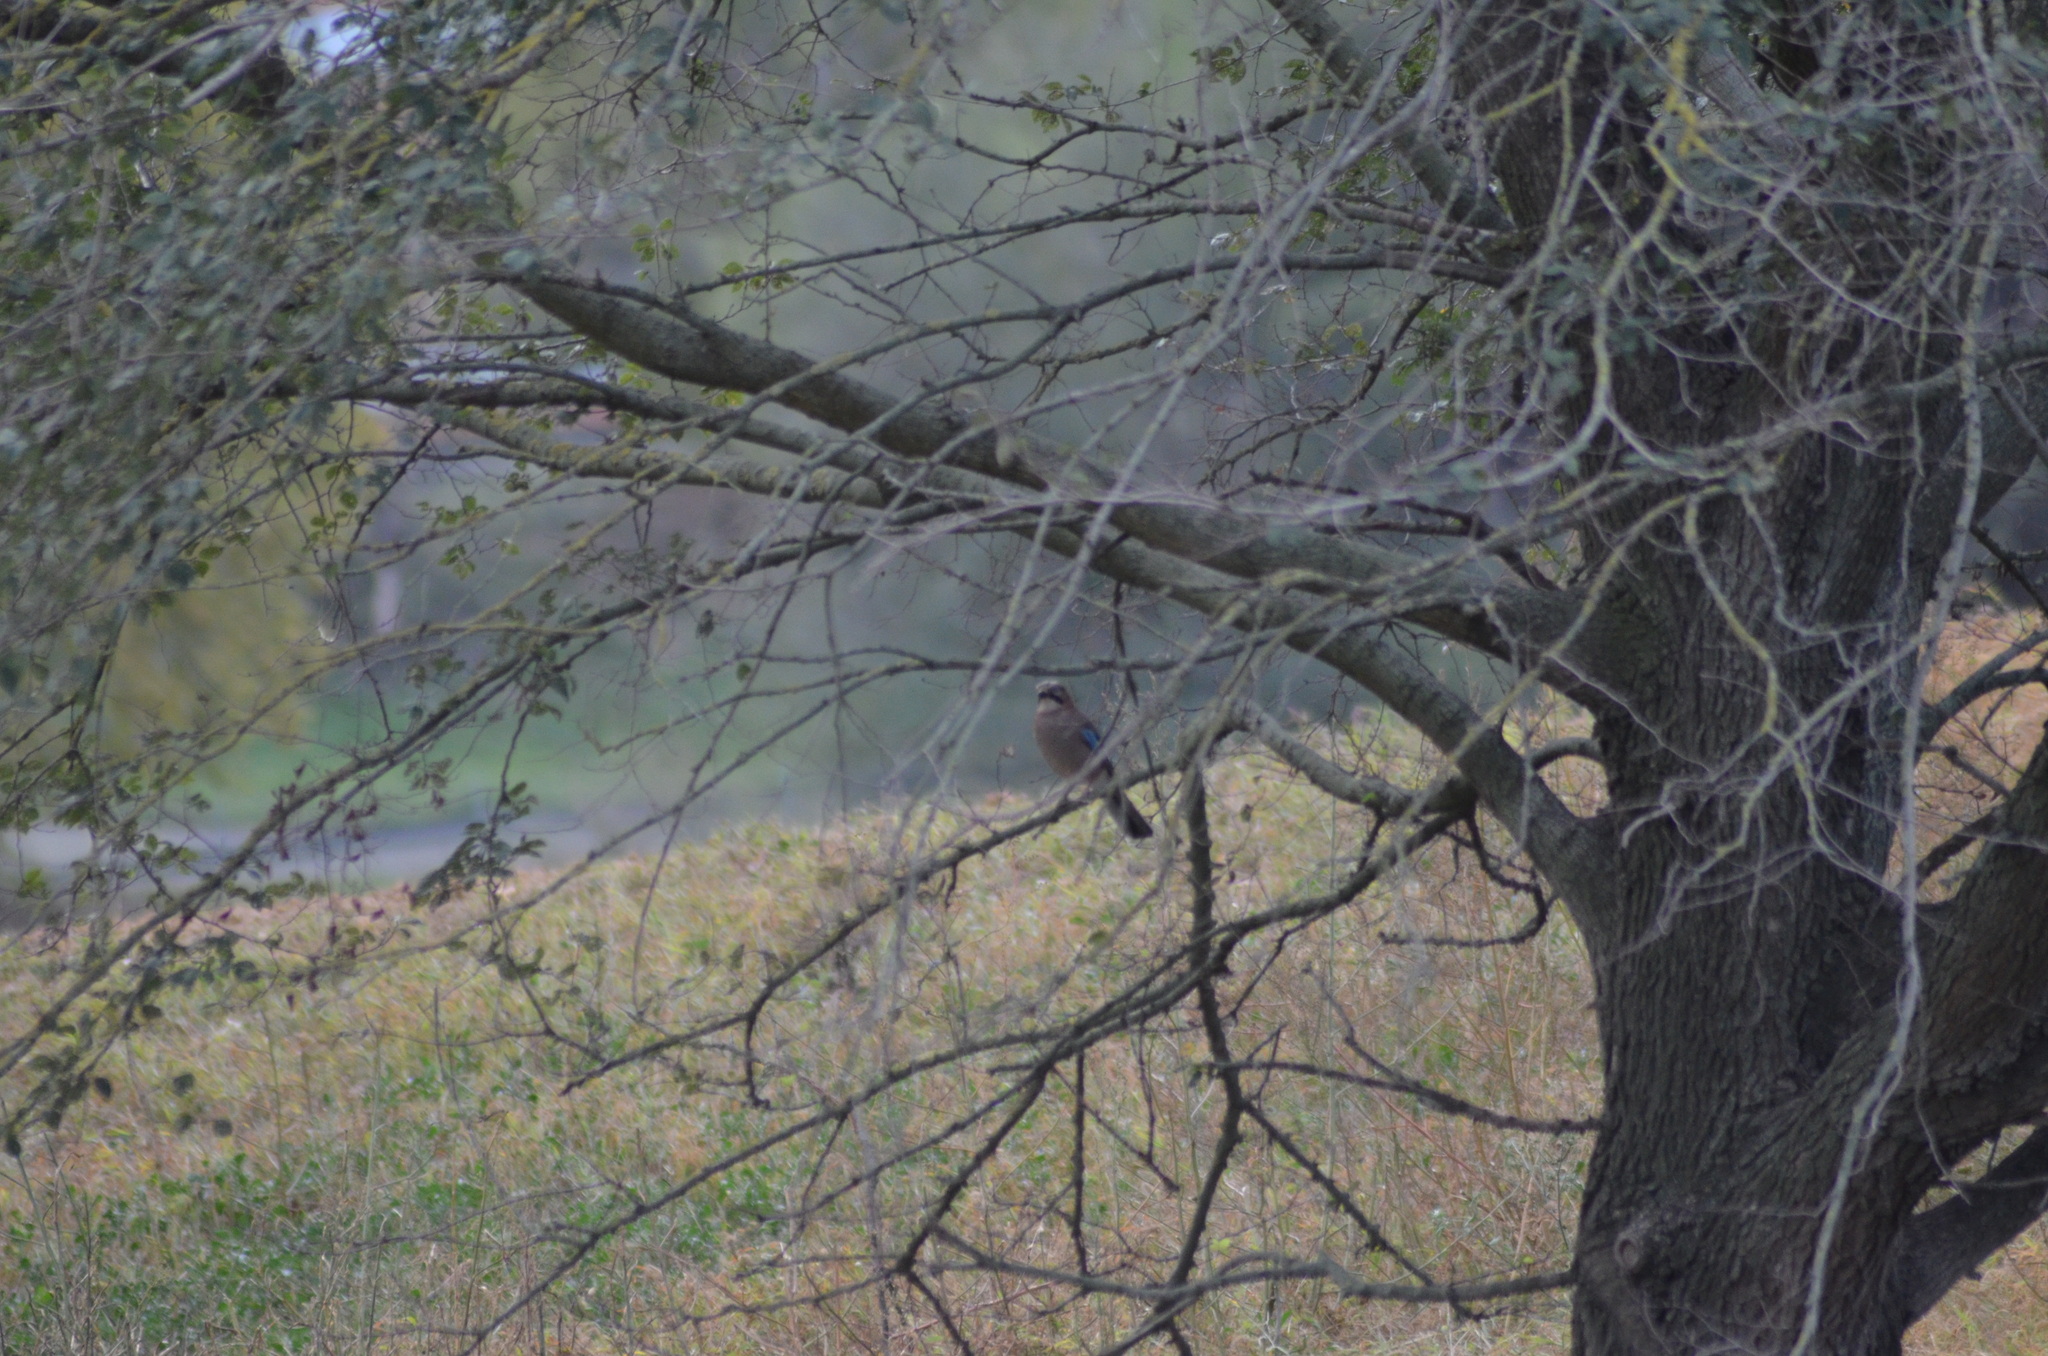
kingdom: Animalia
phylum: Chordata
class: Aves
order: Passeriformes
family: Corvidae
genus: Garrulus
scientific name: Garrulus glandarius
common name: Eurasian jay
